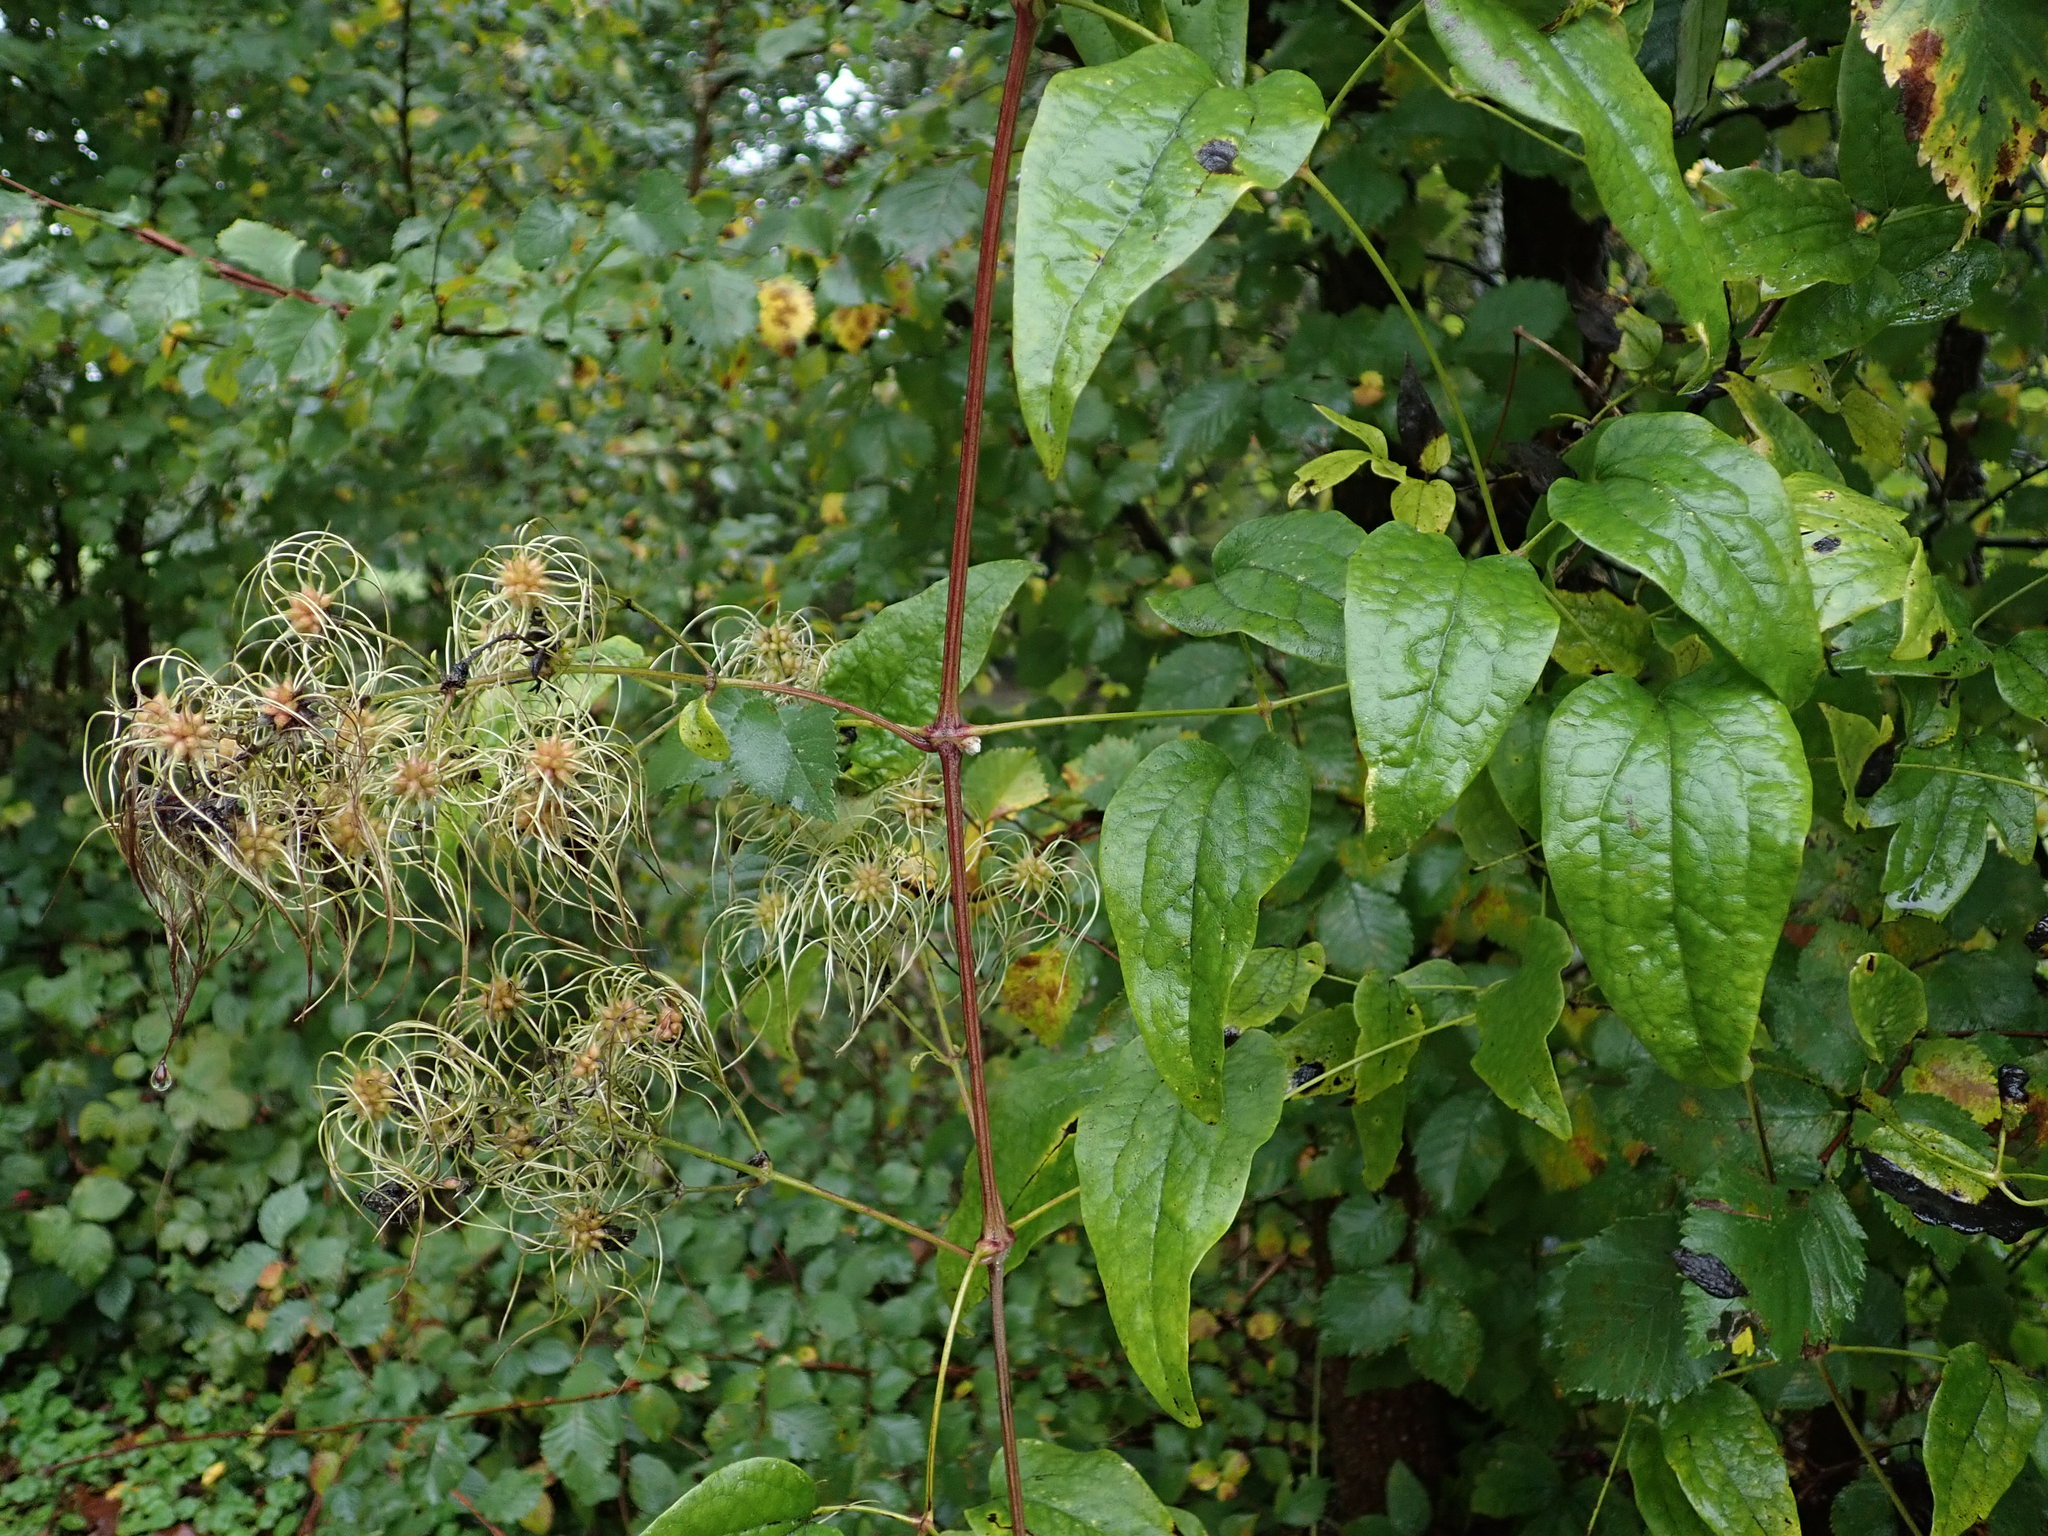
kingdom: Plantae
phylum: Tracheophyta
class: Magnoliopsida
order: Ranunculales
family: Ranunculaceae
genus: Clematis
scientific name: Clematis vitalba
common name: Evergreen clematis
